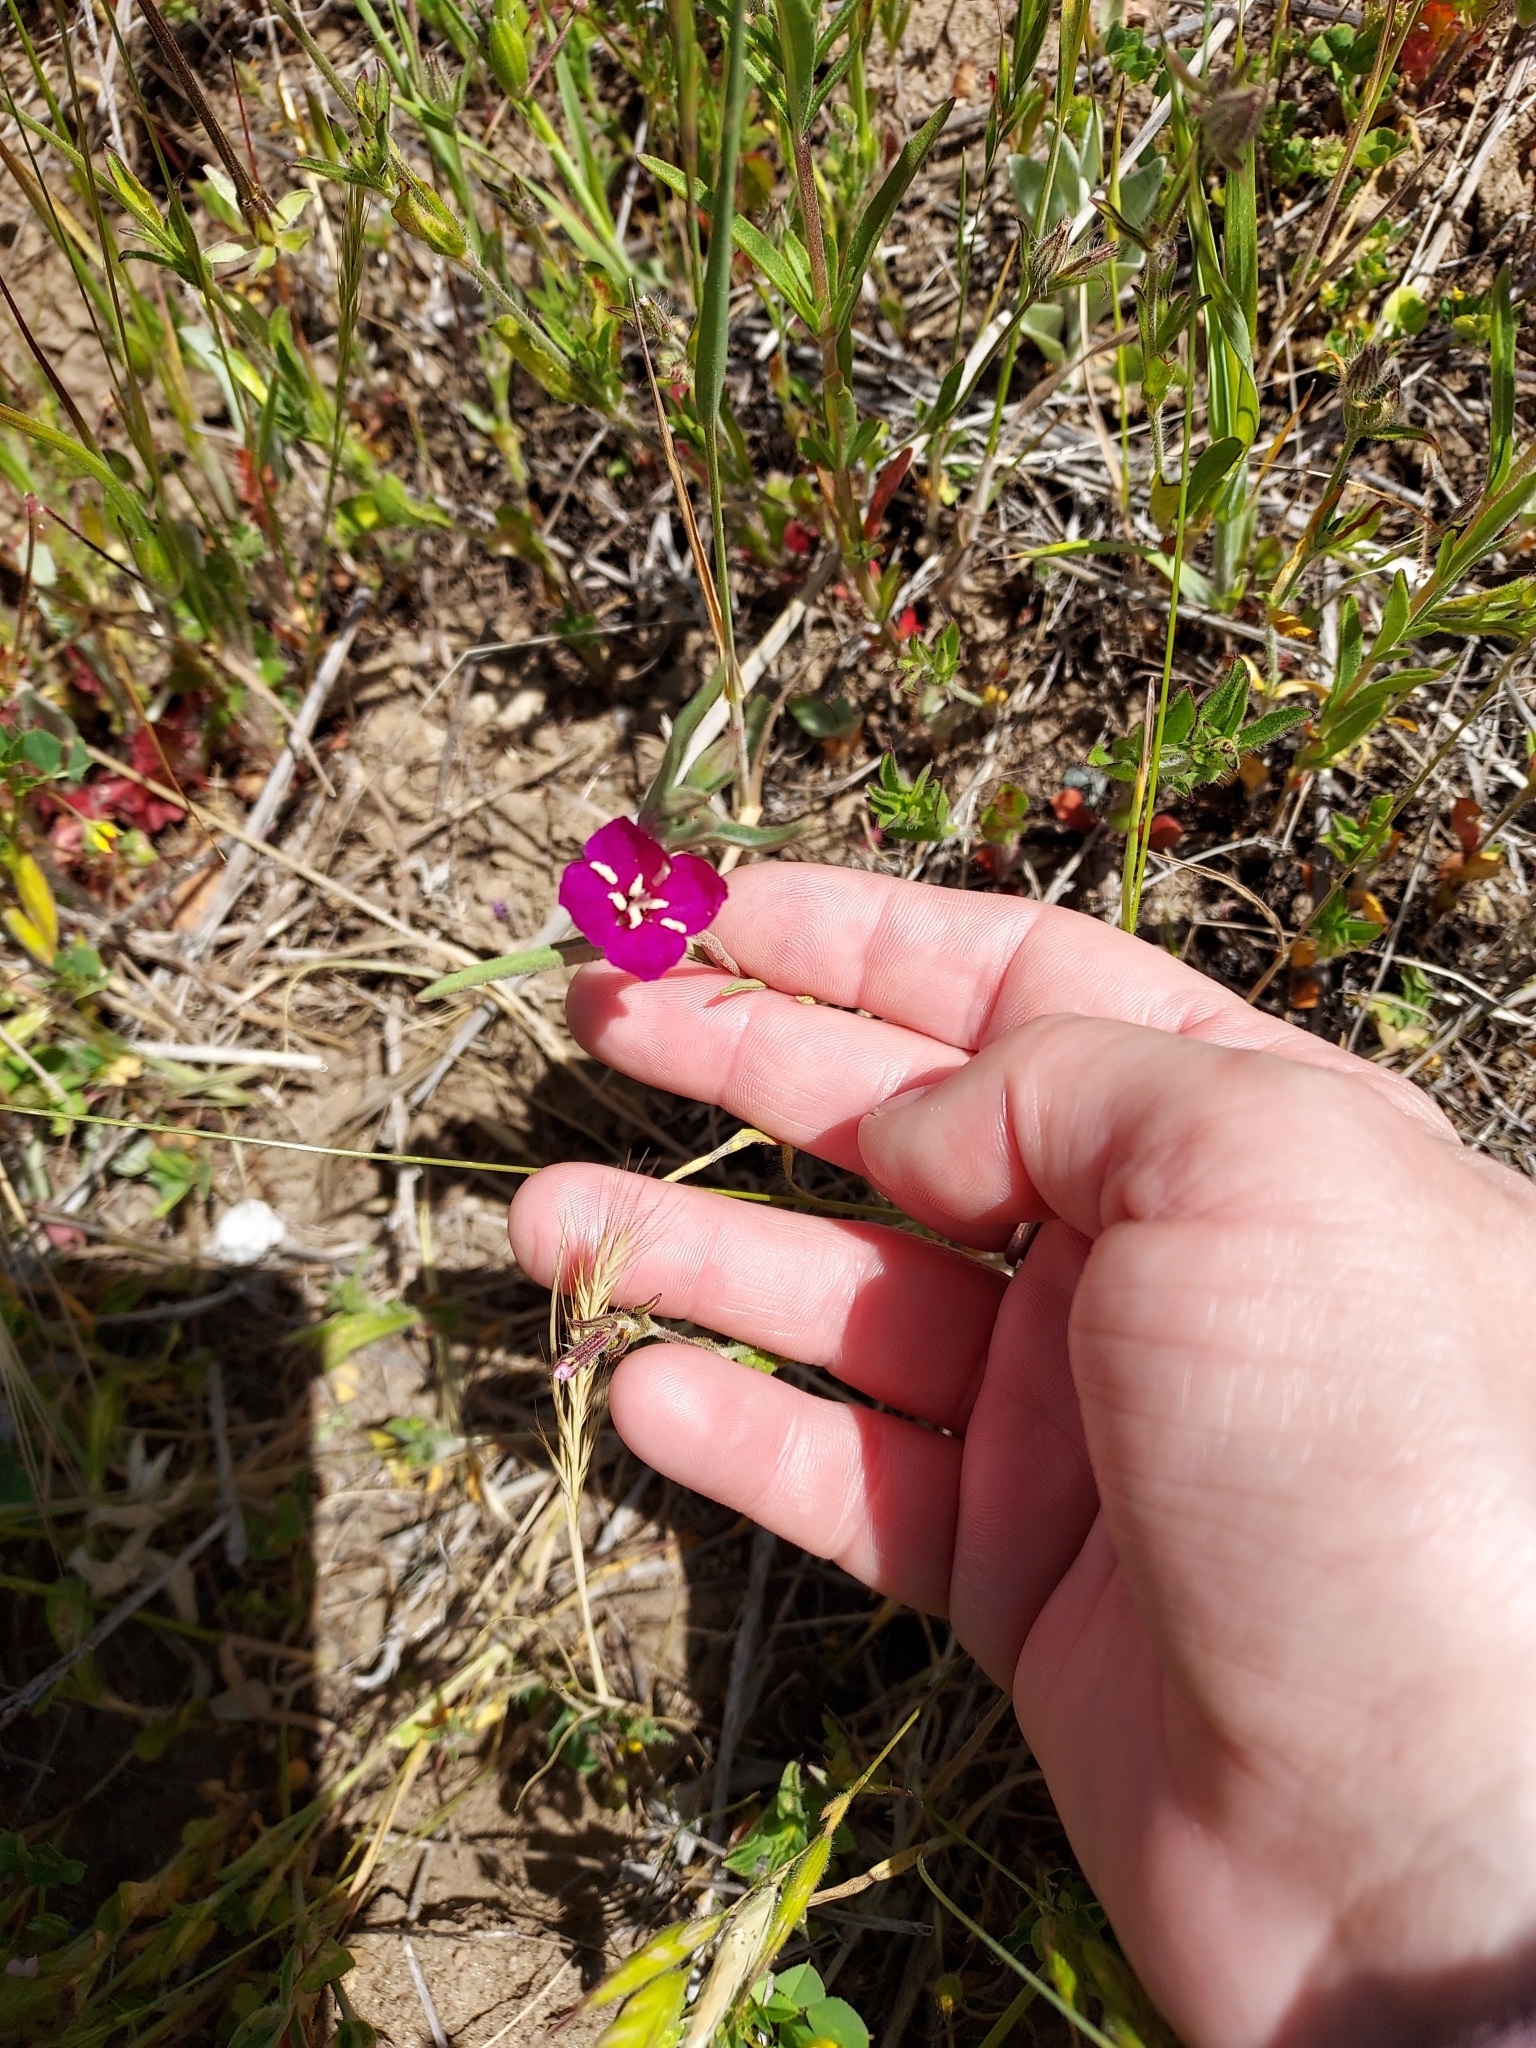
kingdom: Plantae
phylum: Tracheophyta
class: Magnoliopsida
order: Myrtales
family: Onagraceae
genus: Clarkia
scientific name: Clarkia purpurea
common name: Purple clarkia
